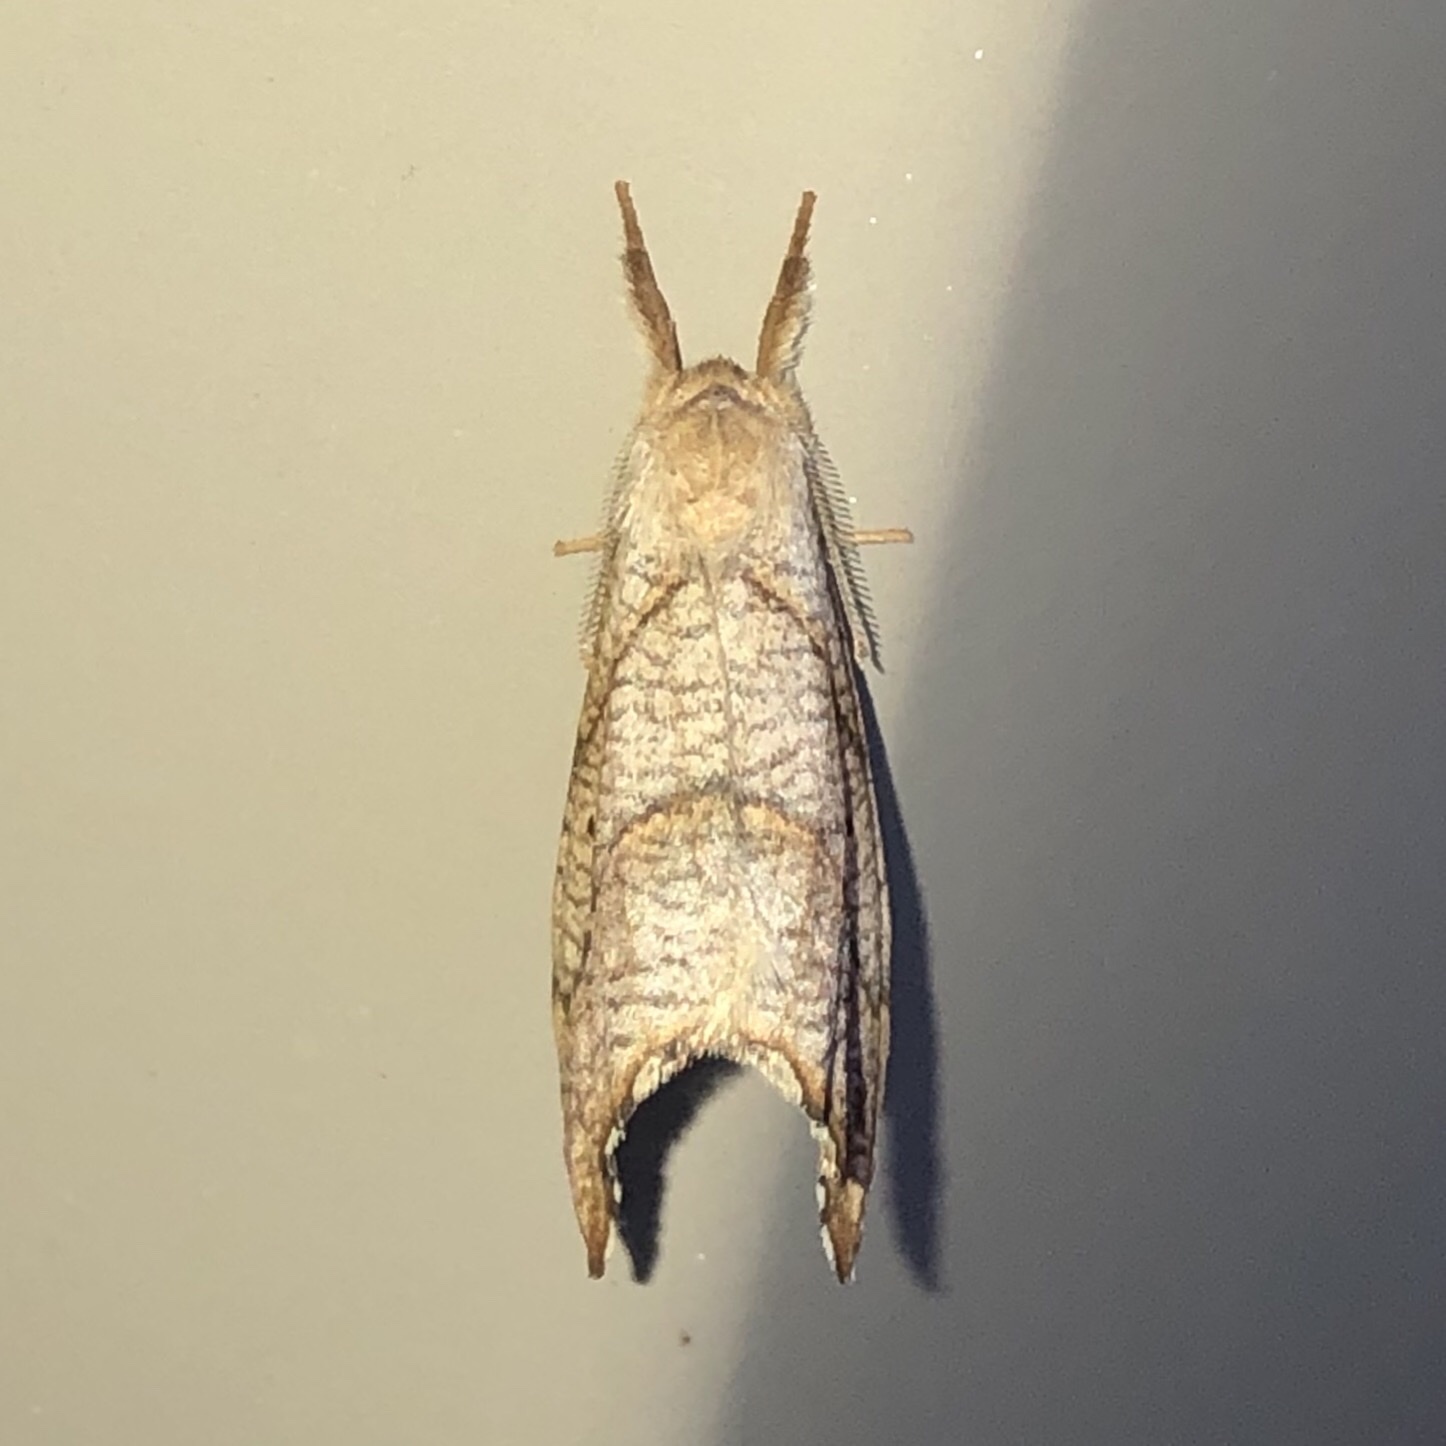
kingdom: Animalia
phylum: Arthropoda
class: Insecta
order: Lepidoptera
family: Drepanidae
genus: Falcaria
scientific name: Falcaria bilineata
